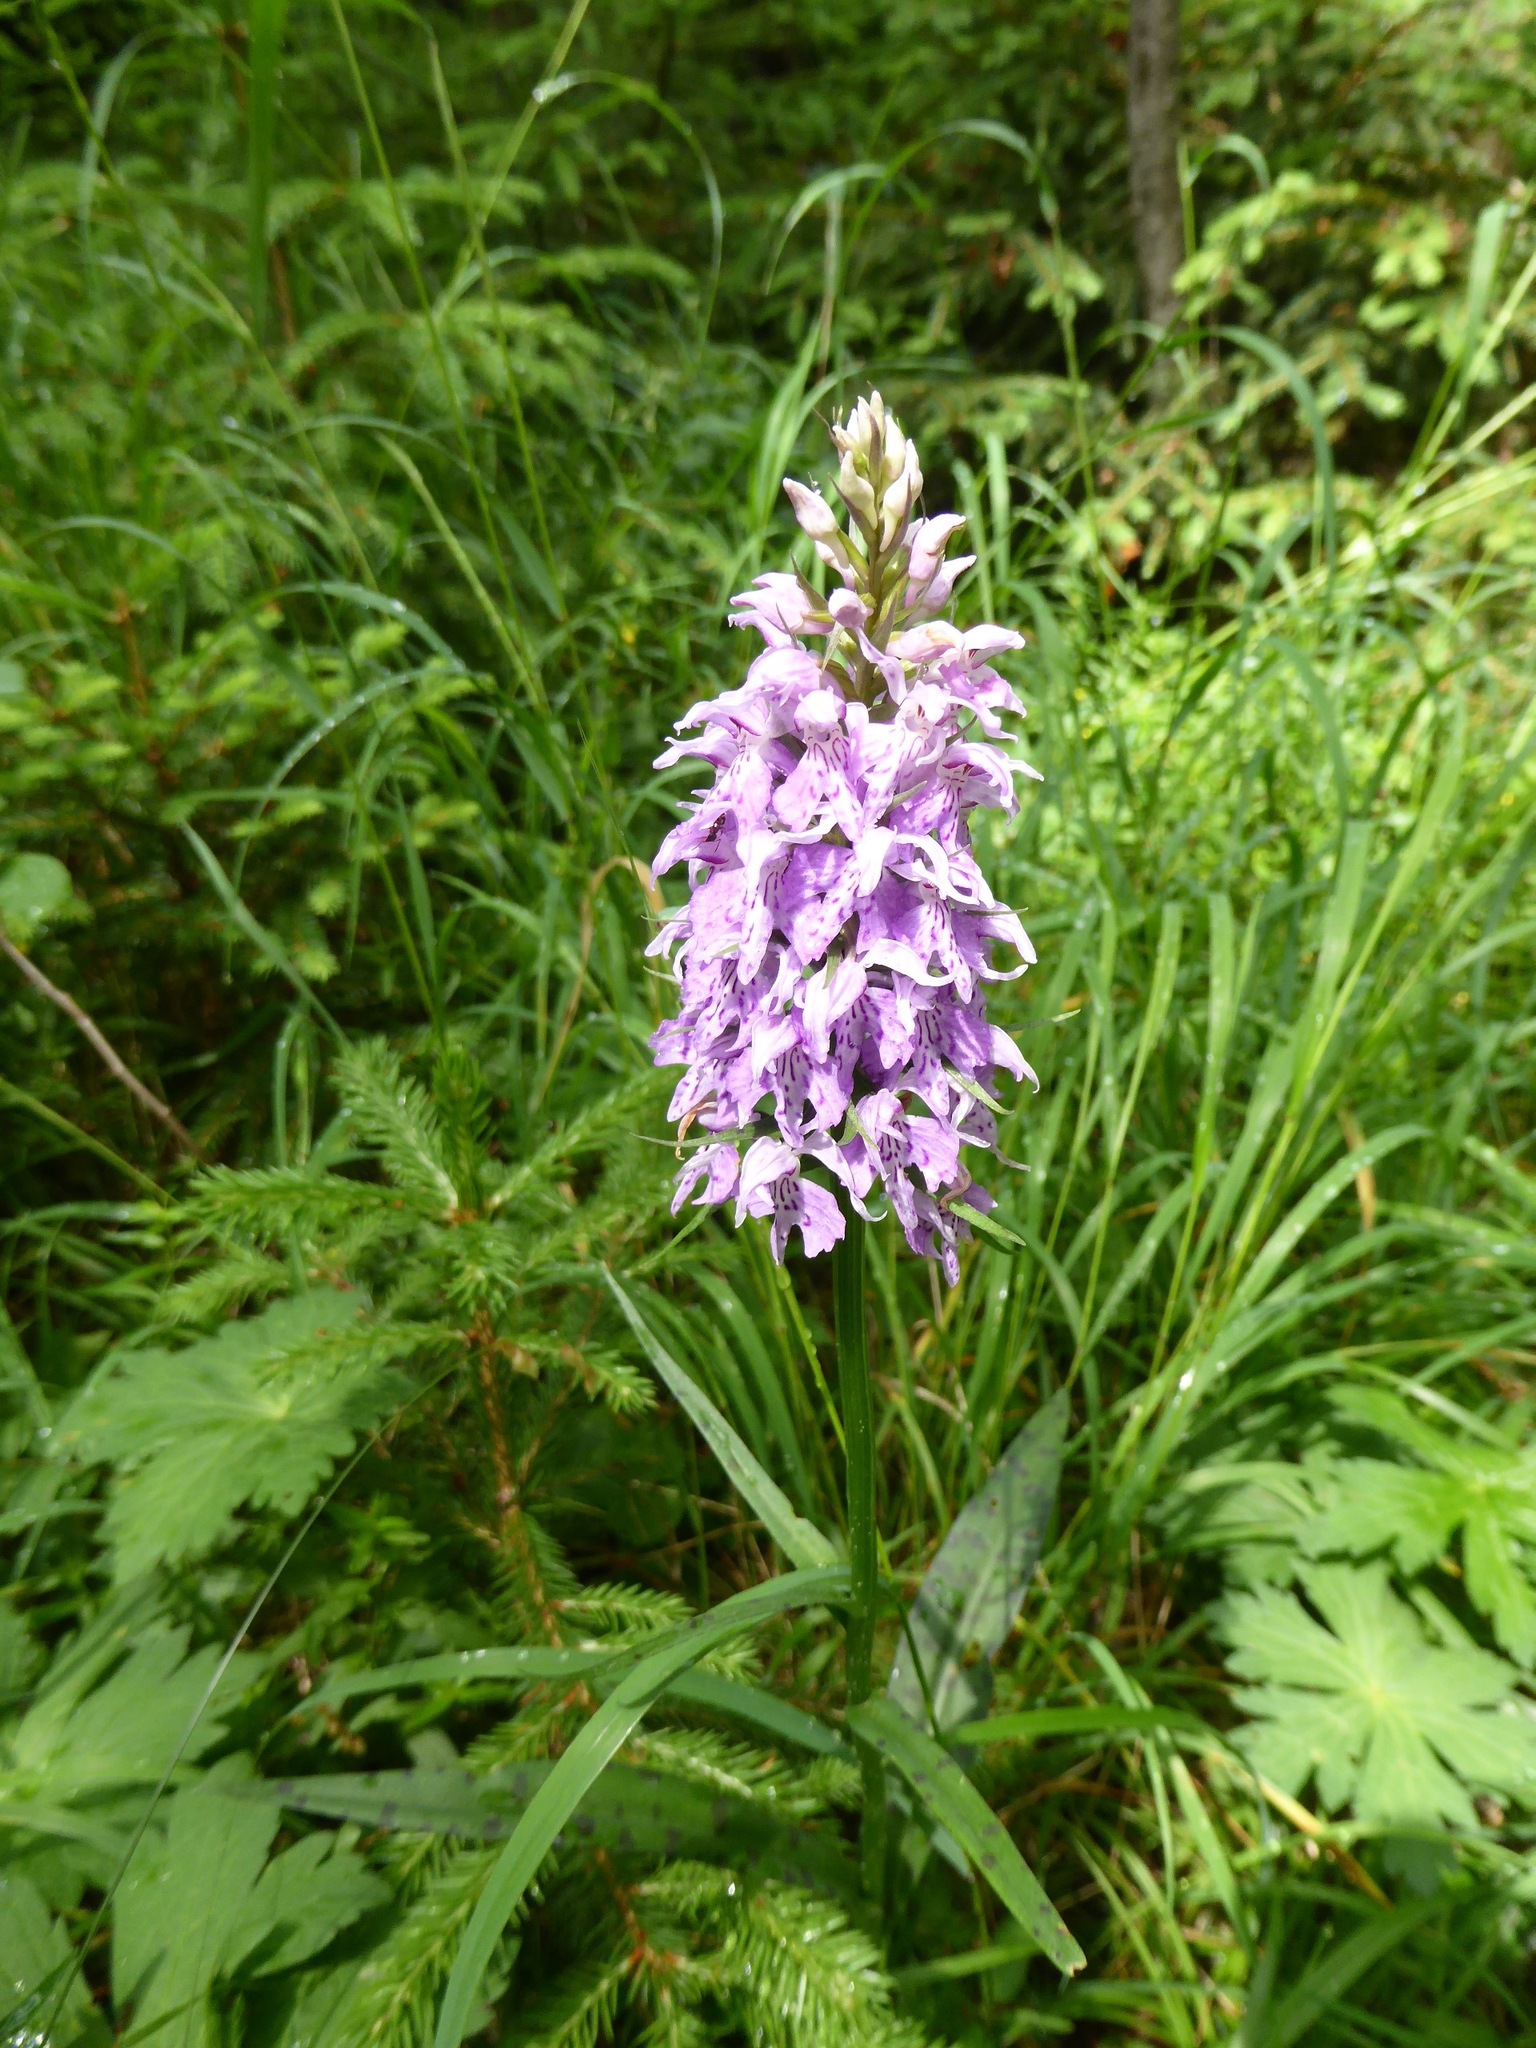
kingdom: Plantae
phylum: Tracheophyta
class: Liliopsida
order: Asparagales
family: Orchidaceae
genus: Dactylorhiza
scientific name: Dactylorhiza maculata
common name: Heath spotted-orchid
